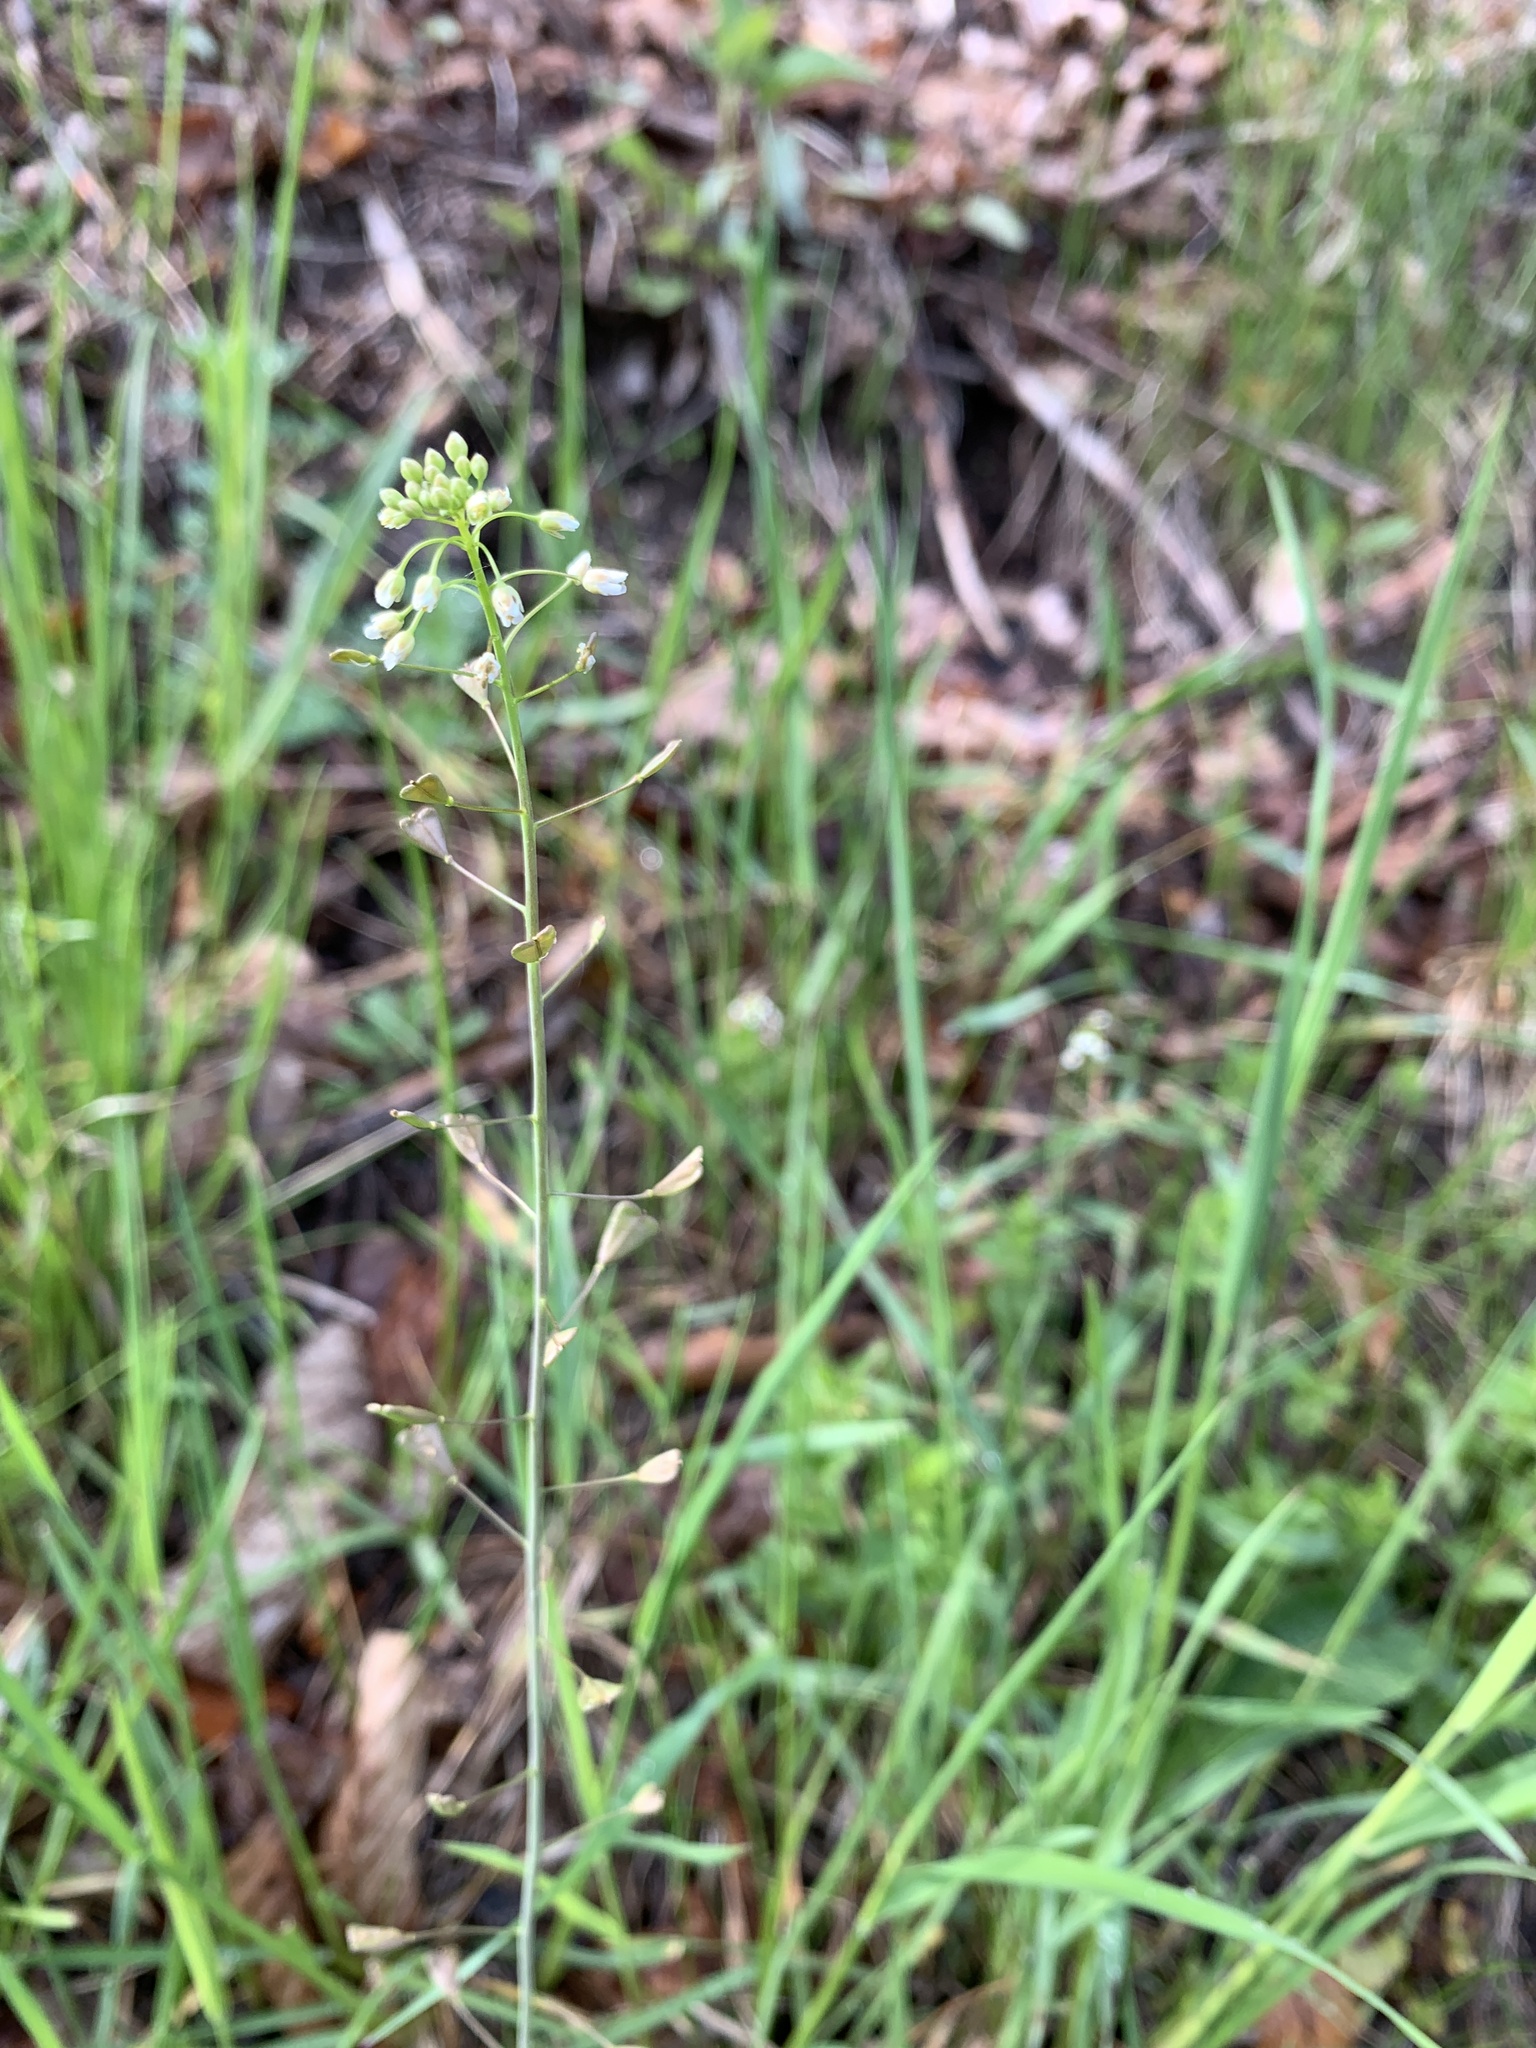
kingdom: Plantae
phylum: Tracheophyta
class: Magnoliopsida
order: Brassicales
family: Brassicaceae
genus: Capsella
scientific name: Capsella bursa-pastoris
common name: Shepherd's purse
